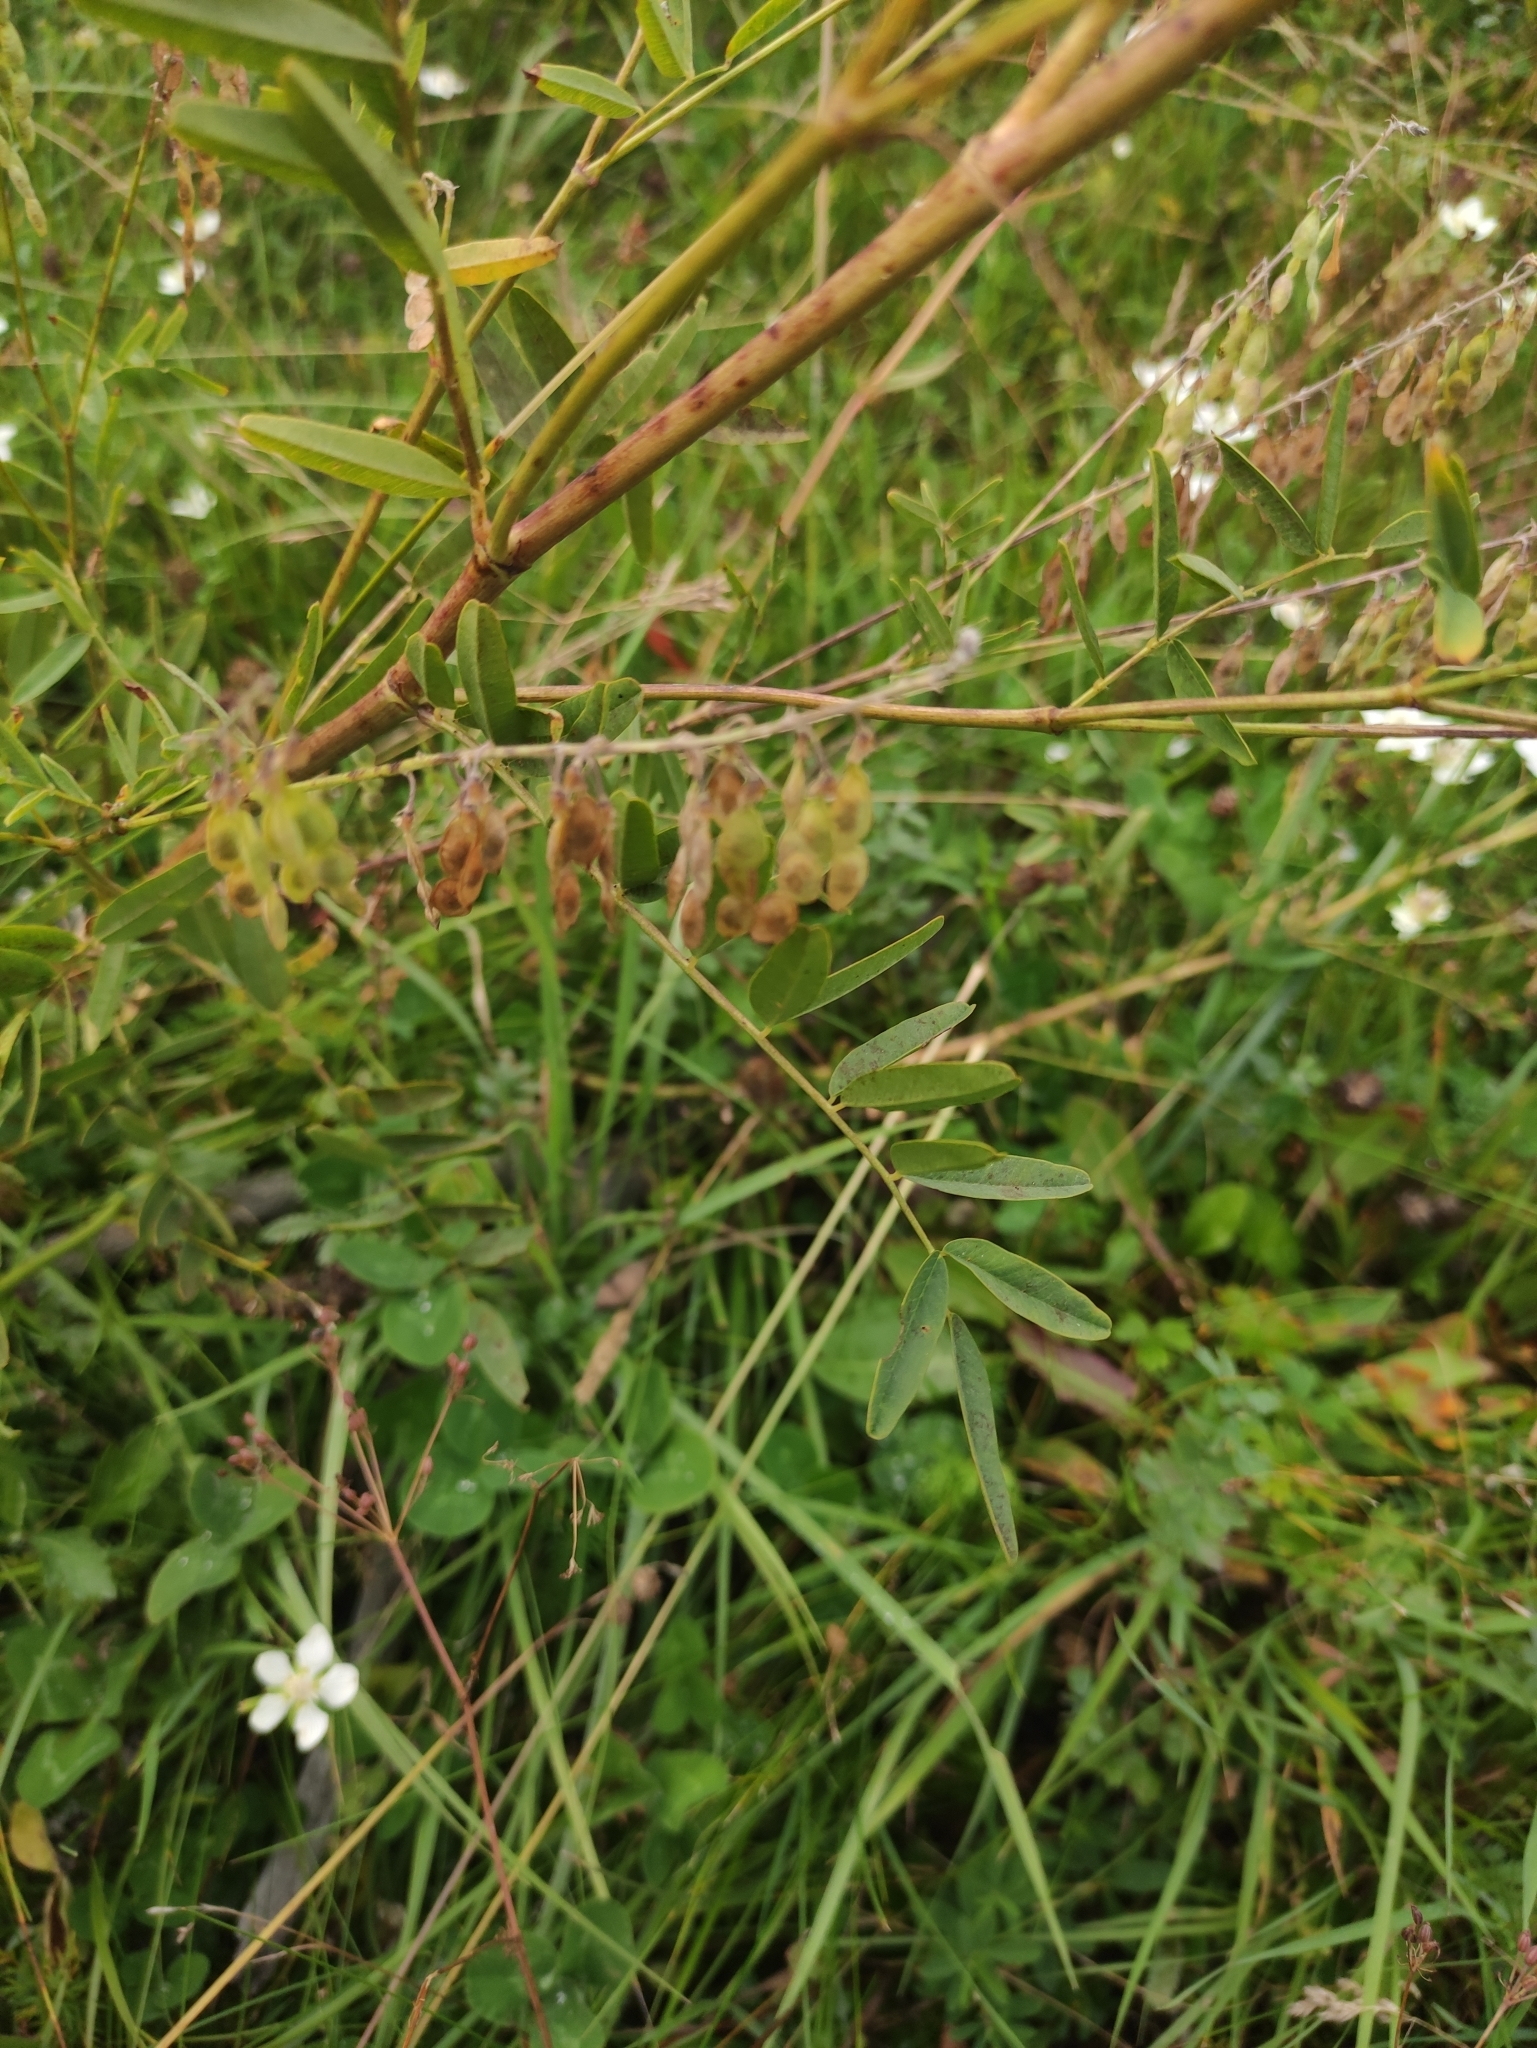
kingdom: Plantae
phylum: Tracheophyta
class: Magnoliopsida
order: Fabales
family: Fabaceae
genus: Hedysarum
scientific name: Hedysarum alpinum
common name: Alpine sweet-vetch
